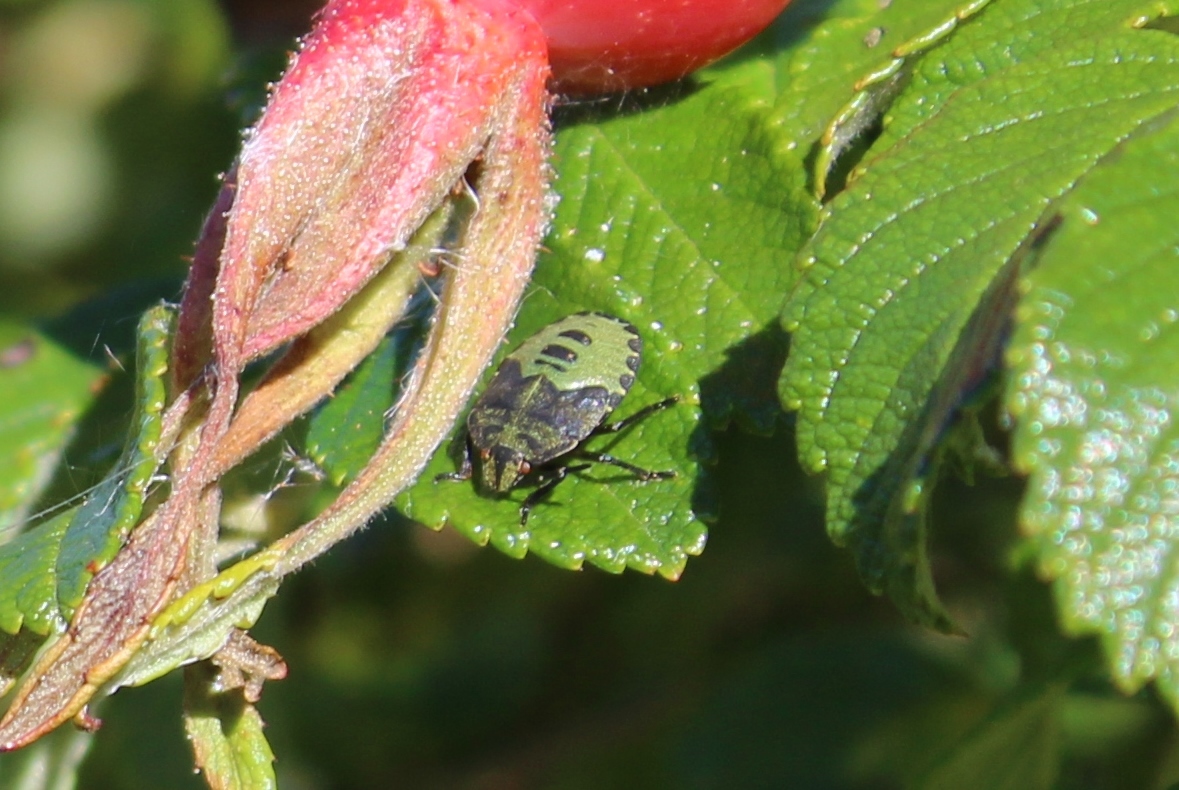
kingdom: Animalia
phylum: Arthropoda
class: Insecta
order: Hemiptera
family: Pentatomidae
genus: Palomena
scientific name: Palomena prasina
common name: Green shieldbug
